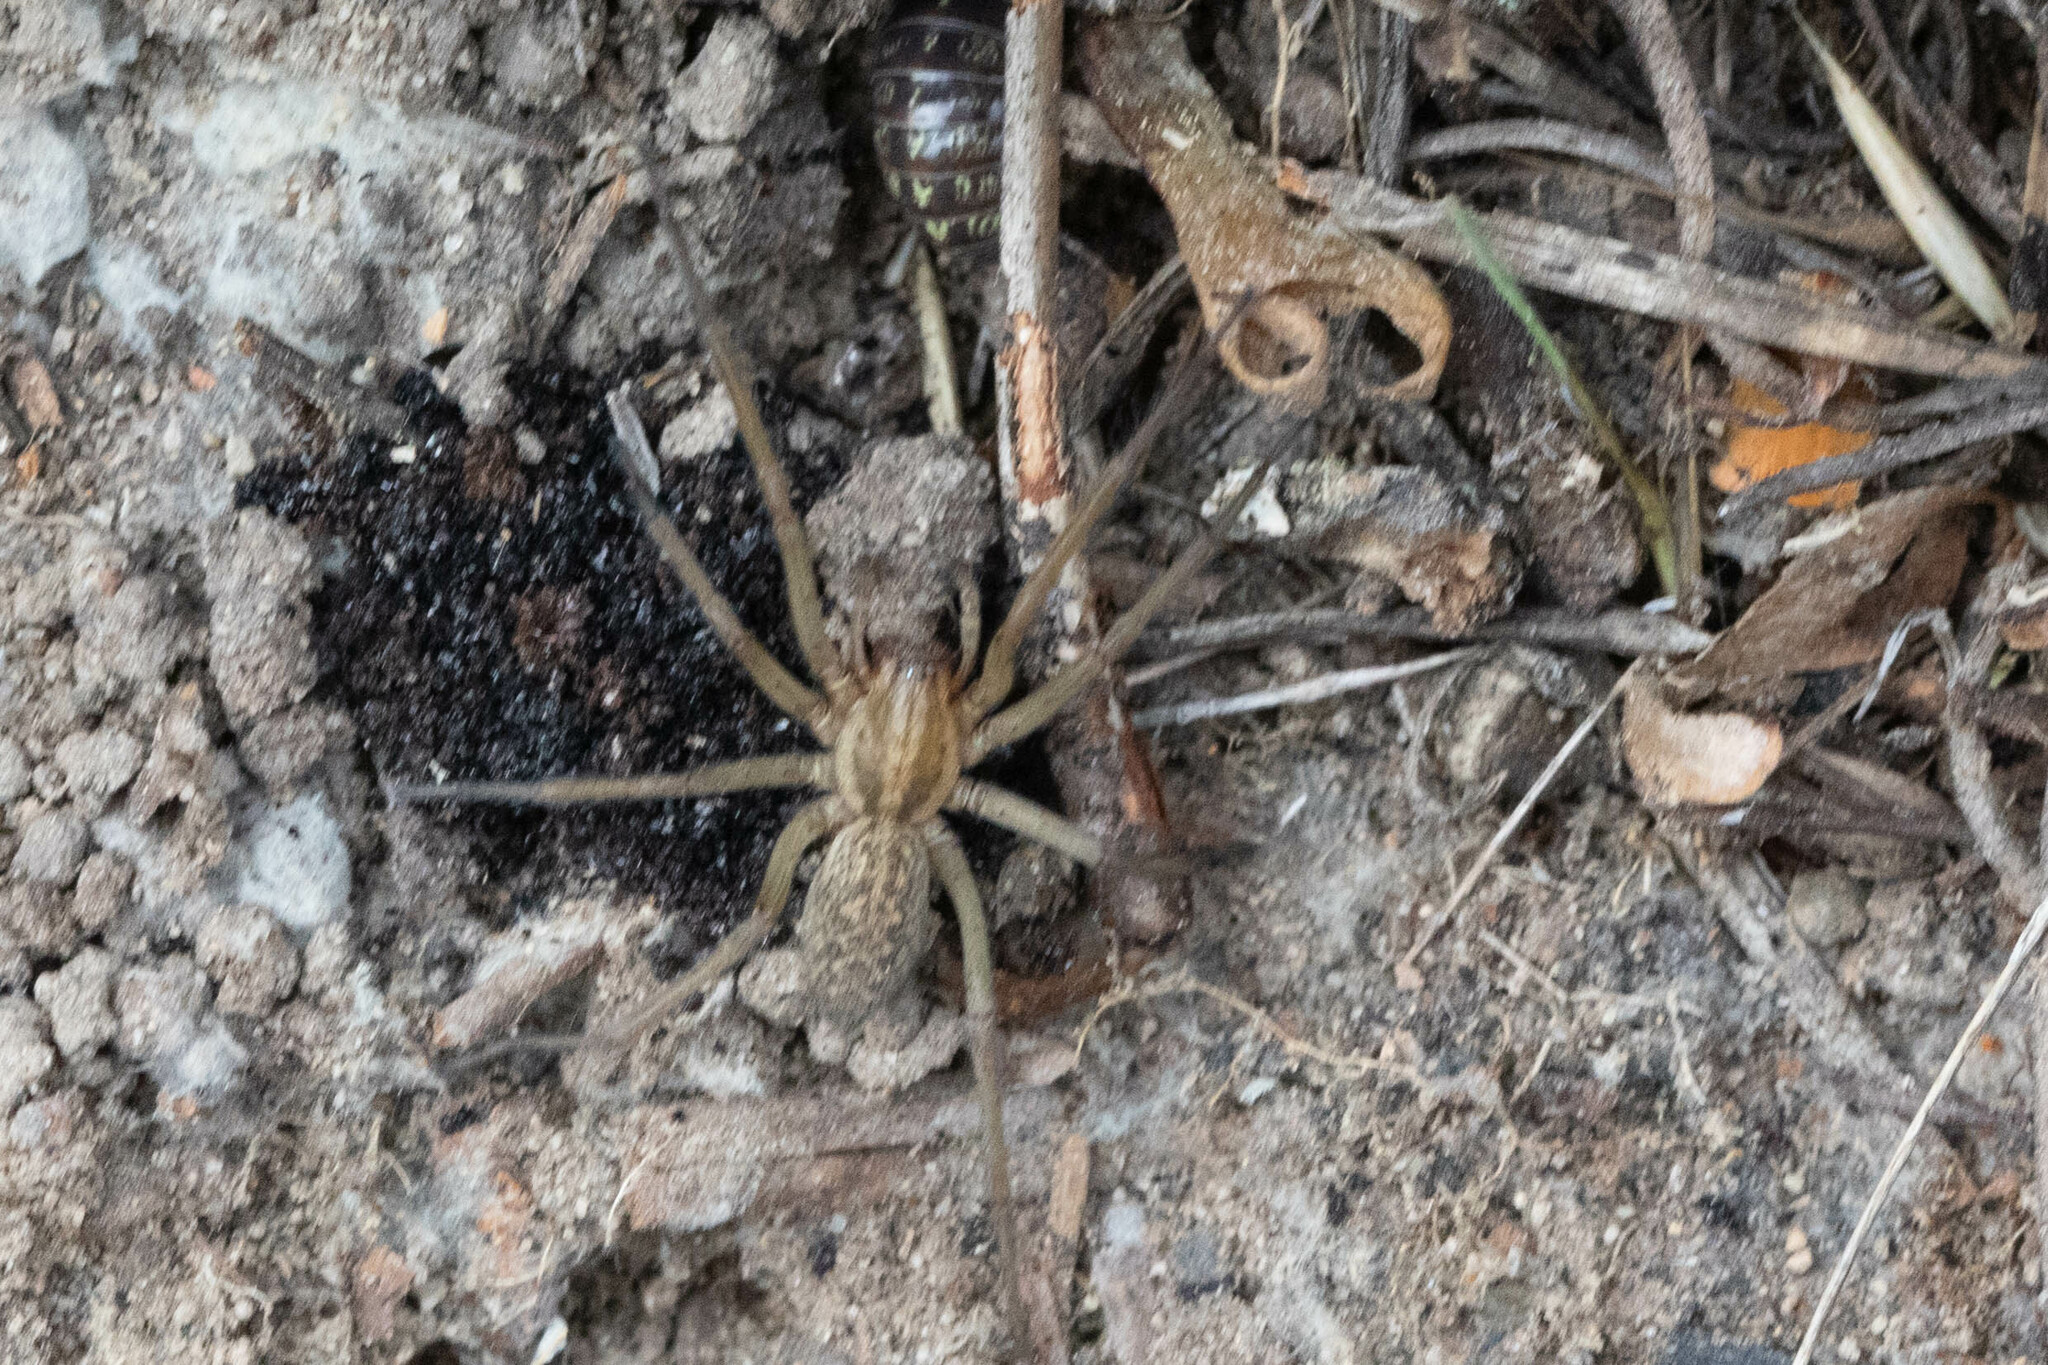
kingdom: Animalia
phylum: Arthropoda
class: Arachnida
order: Araneae
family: Agelenidae
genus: Eratigena
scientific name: Eratigena agrestis
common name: Hobo spider
